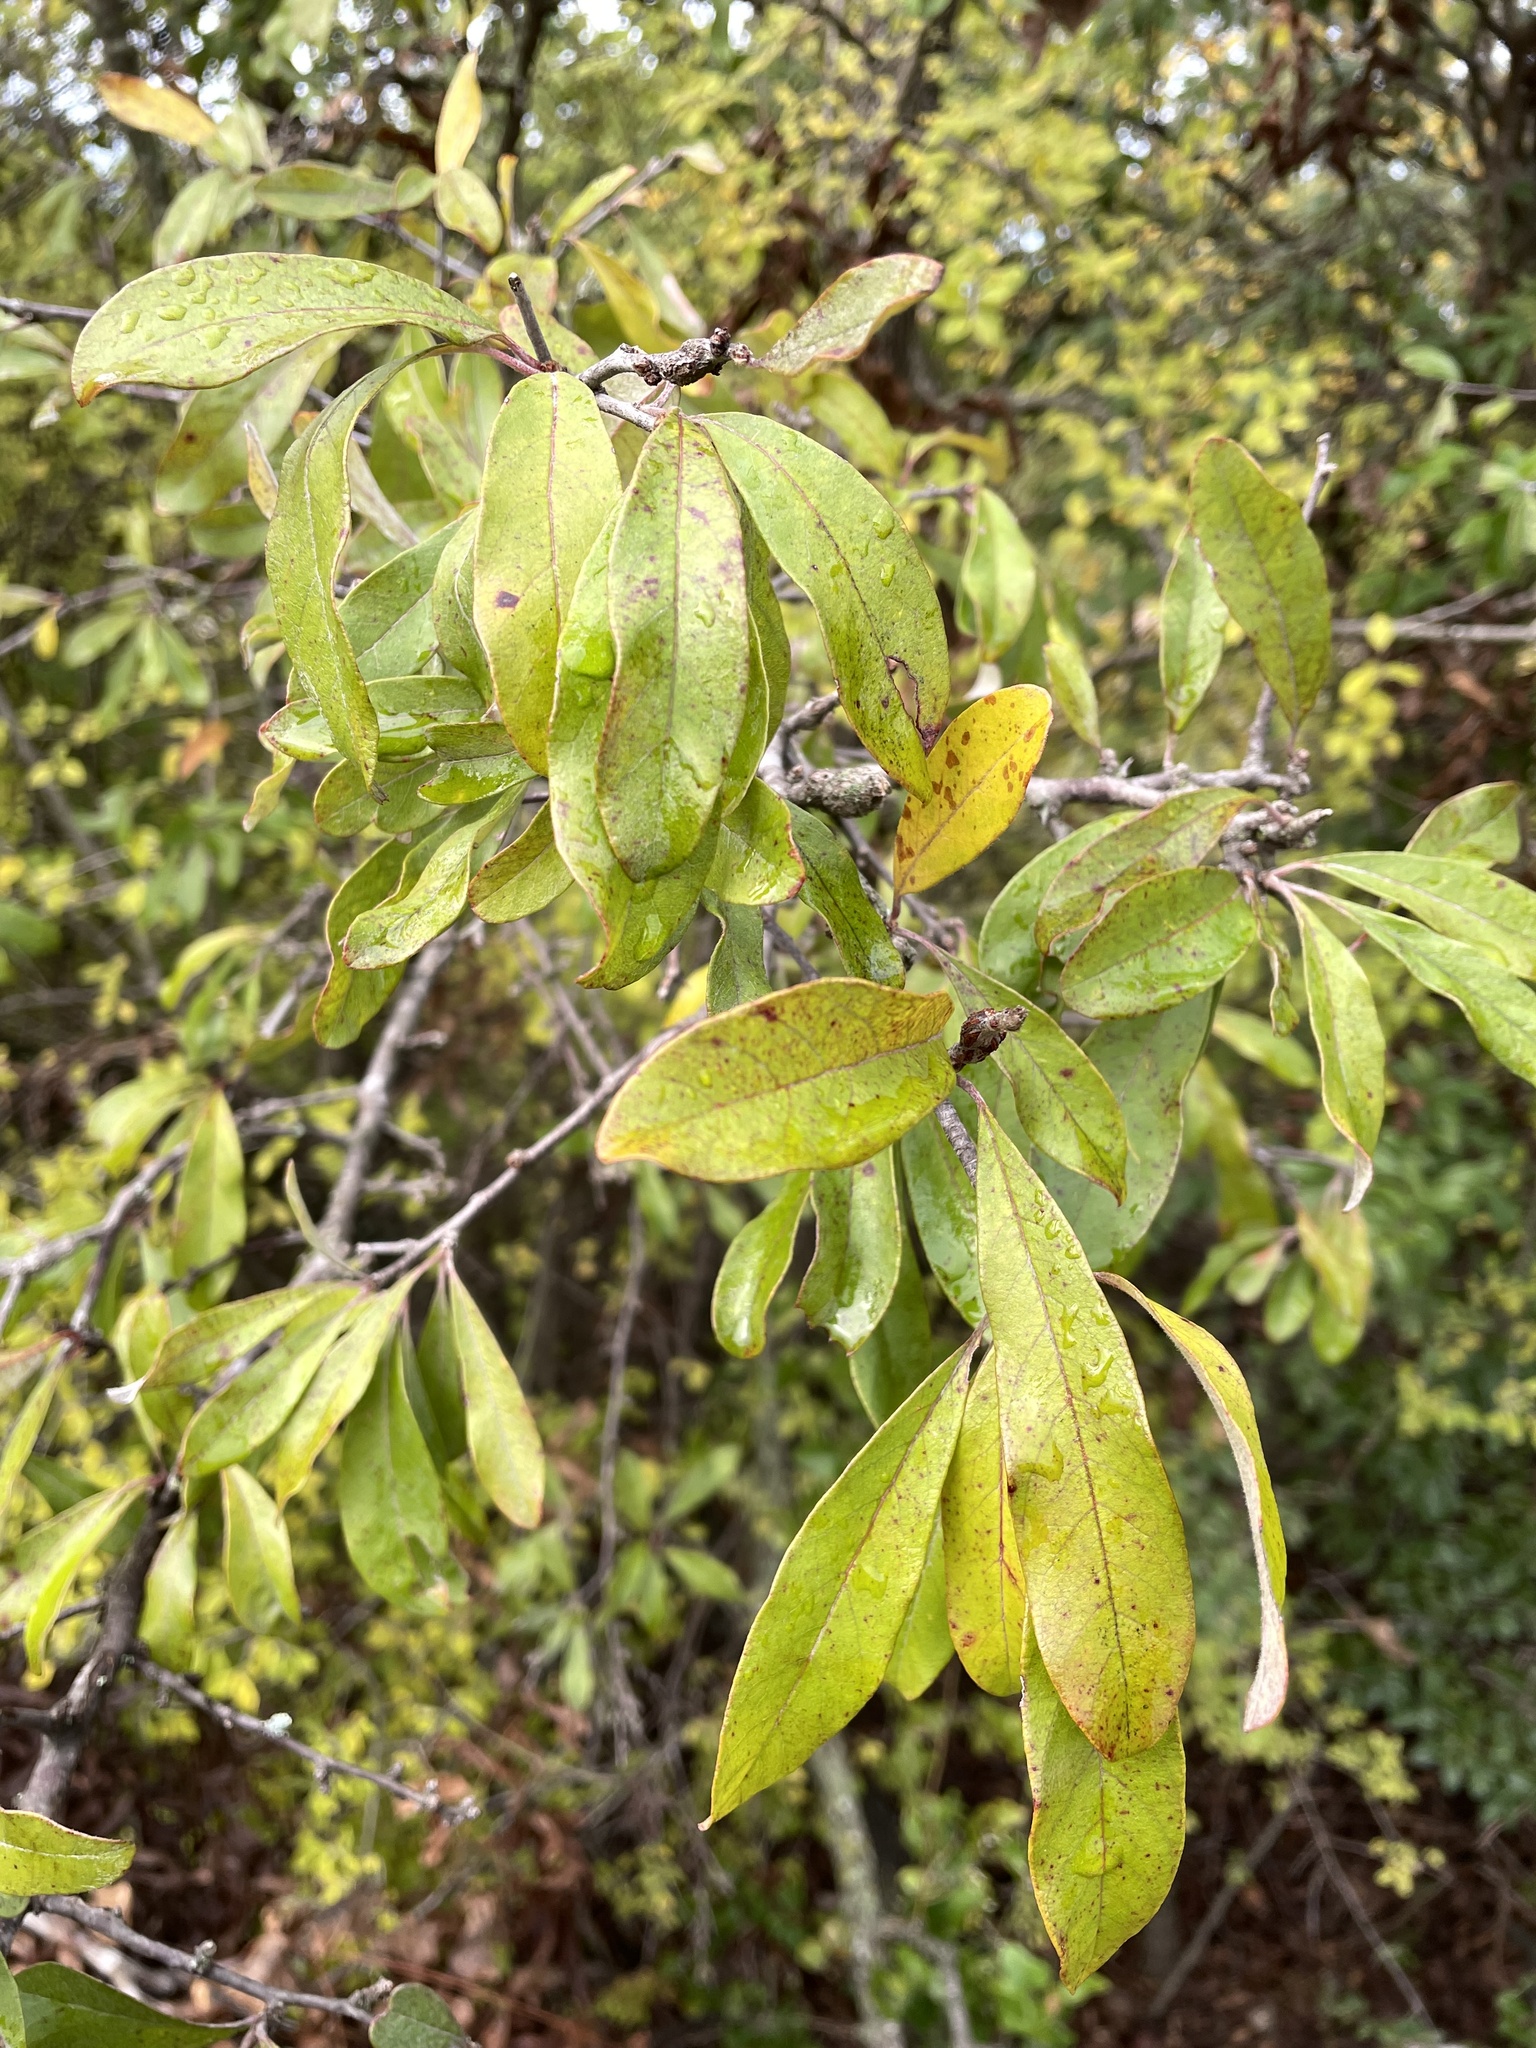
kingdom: Plantae
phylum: Tracheophyta
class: Magnoliopsida
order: Ericales
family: Sapotaceae
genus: Sideroxylon
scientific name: Sideroxylon lanuginosum
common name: Chittamwood
